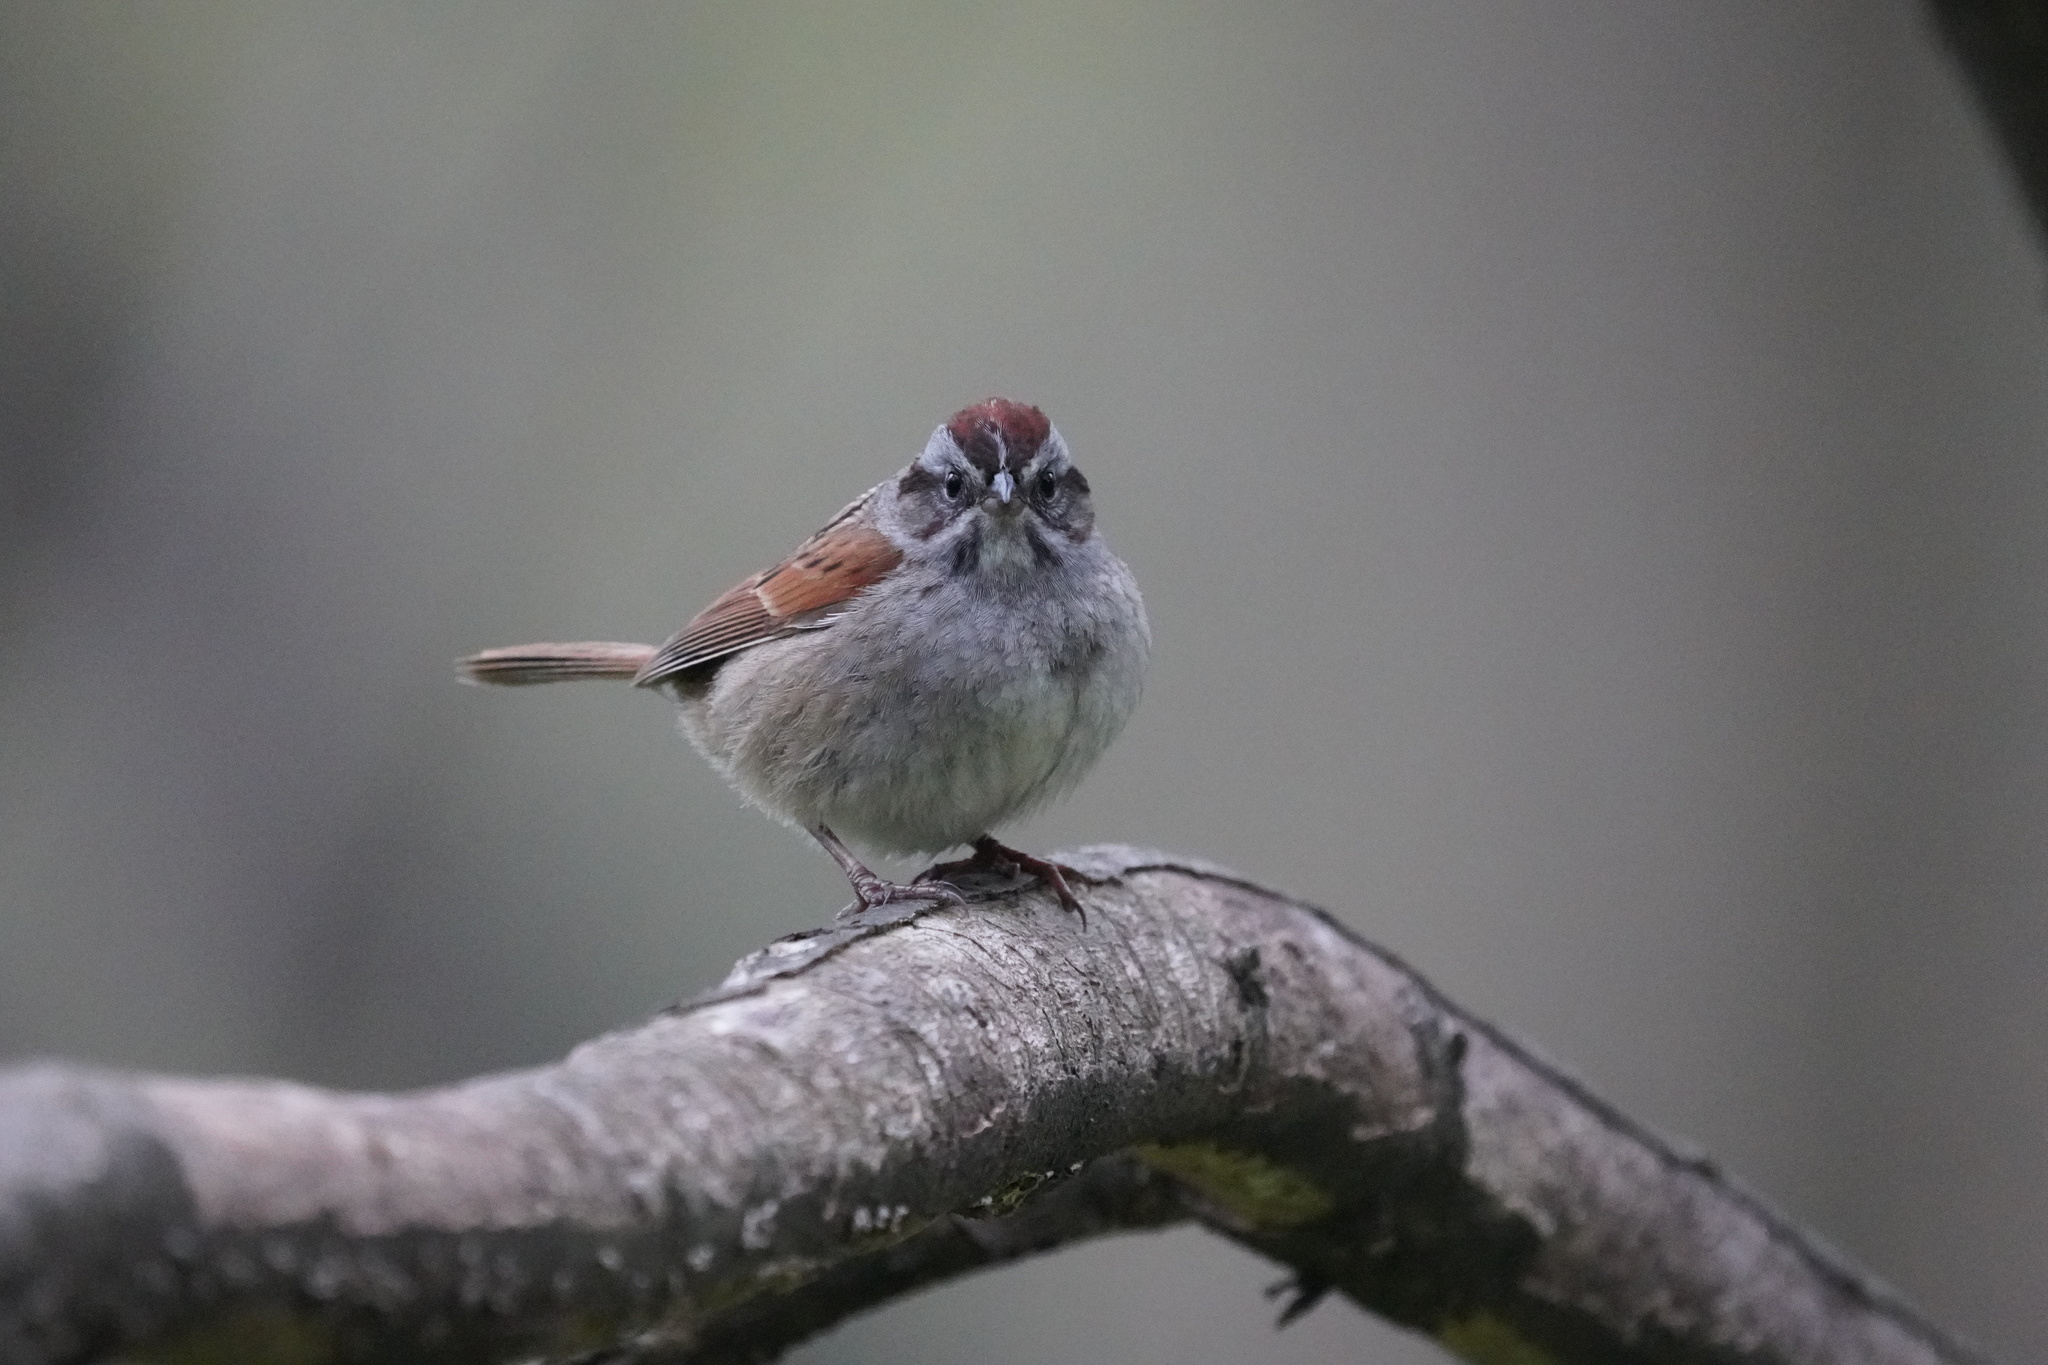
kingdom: Animalia
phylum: Chordata
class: Aves
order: Passeriformes
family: Passerellidae
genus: Melospiza
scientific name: Melospiza georgiana
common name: Swamp sparrow
